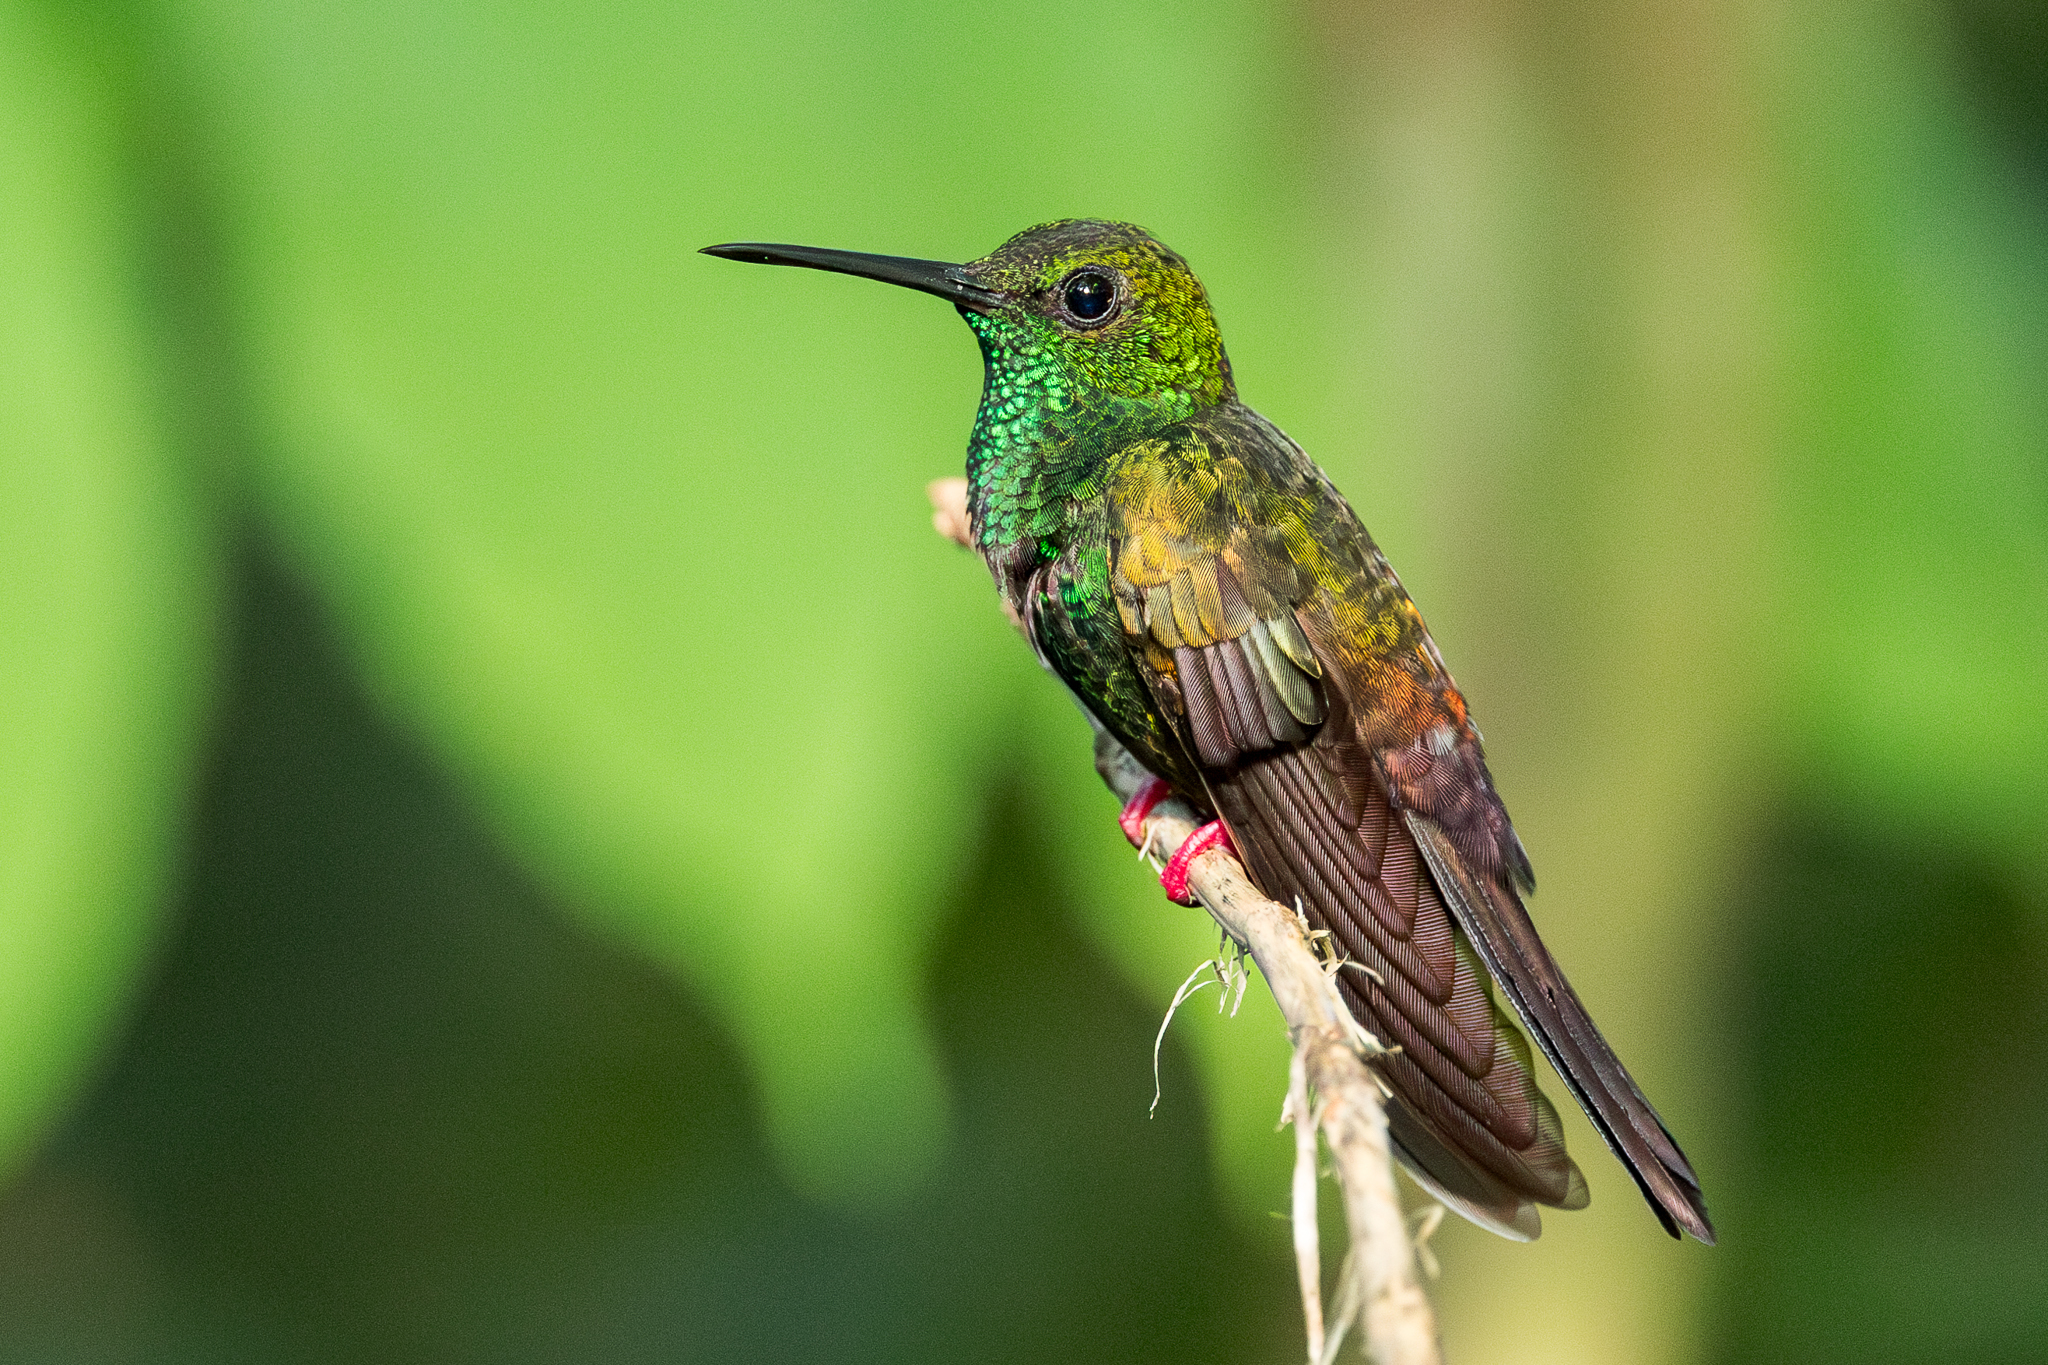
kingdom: Animalia
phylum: Chordata
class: Aves
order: Apodiformes
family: Trochilidae
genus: Chalybura
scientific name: Chalybura urochrysia
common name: Bronze-tailed plumeleteer
